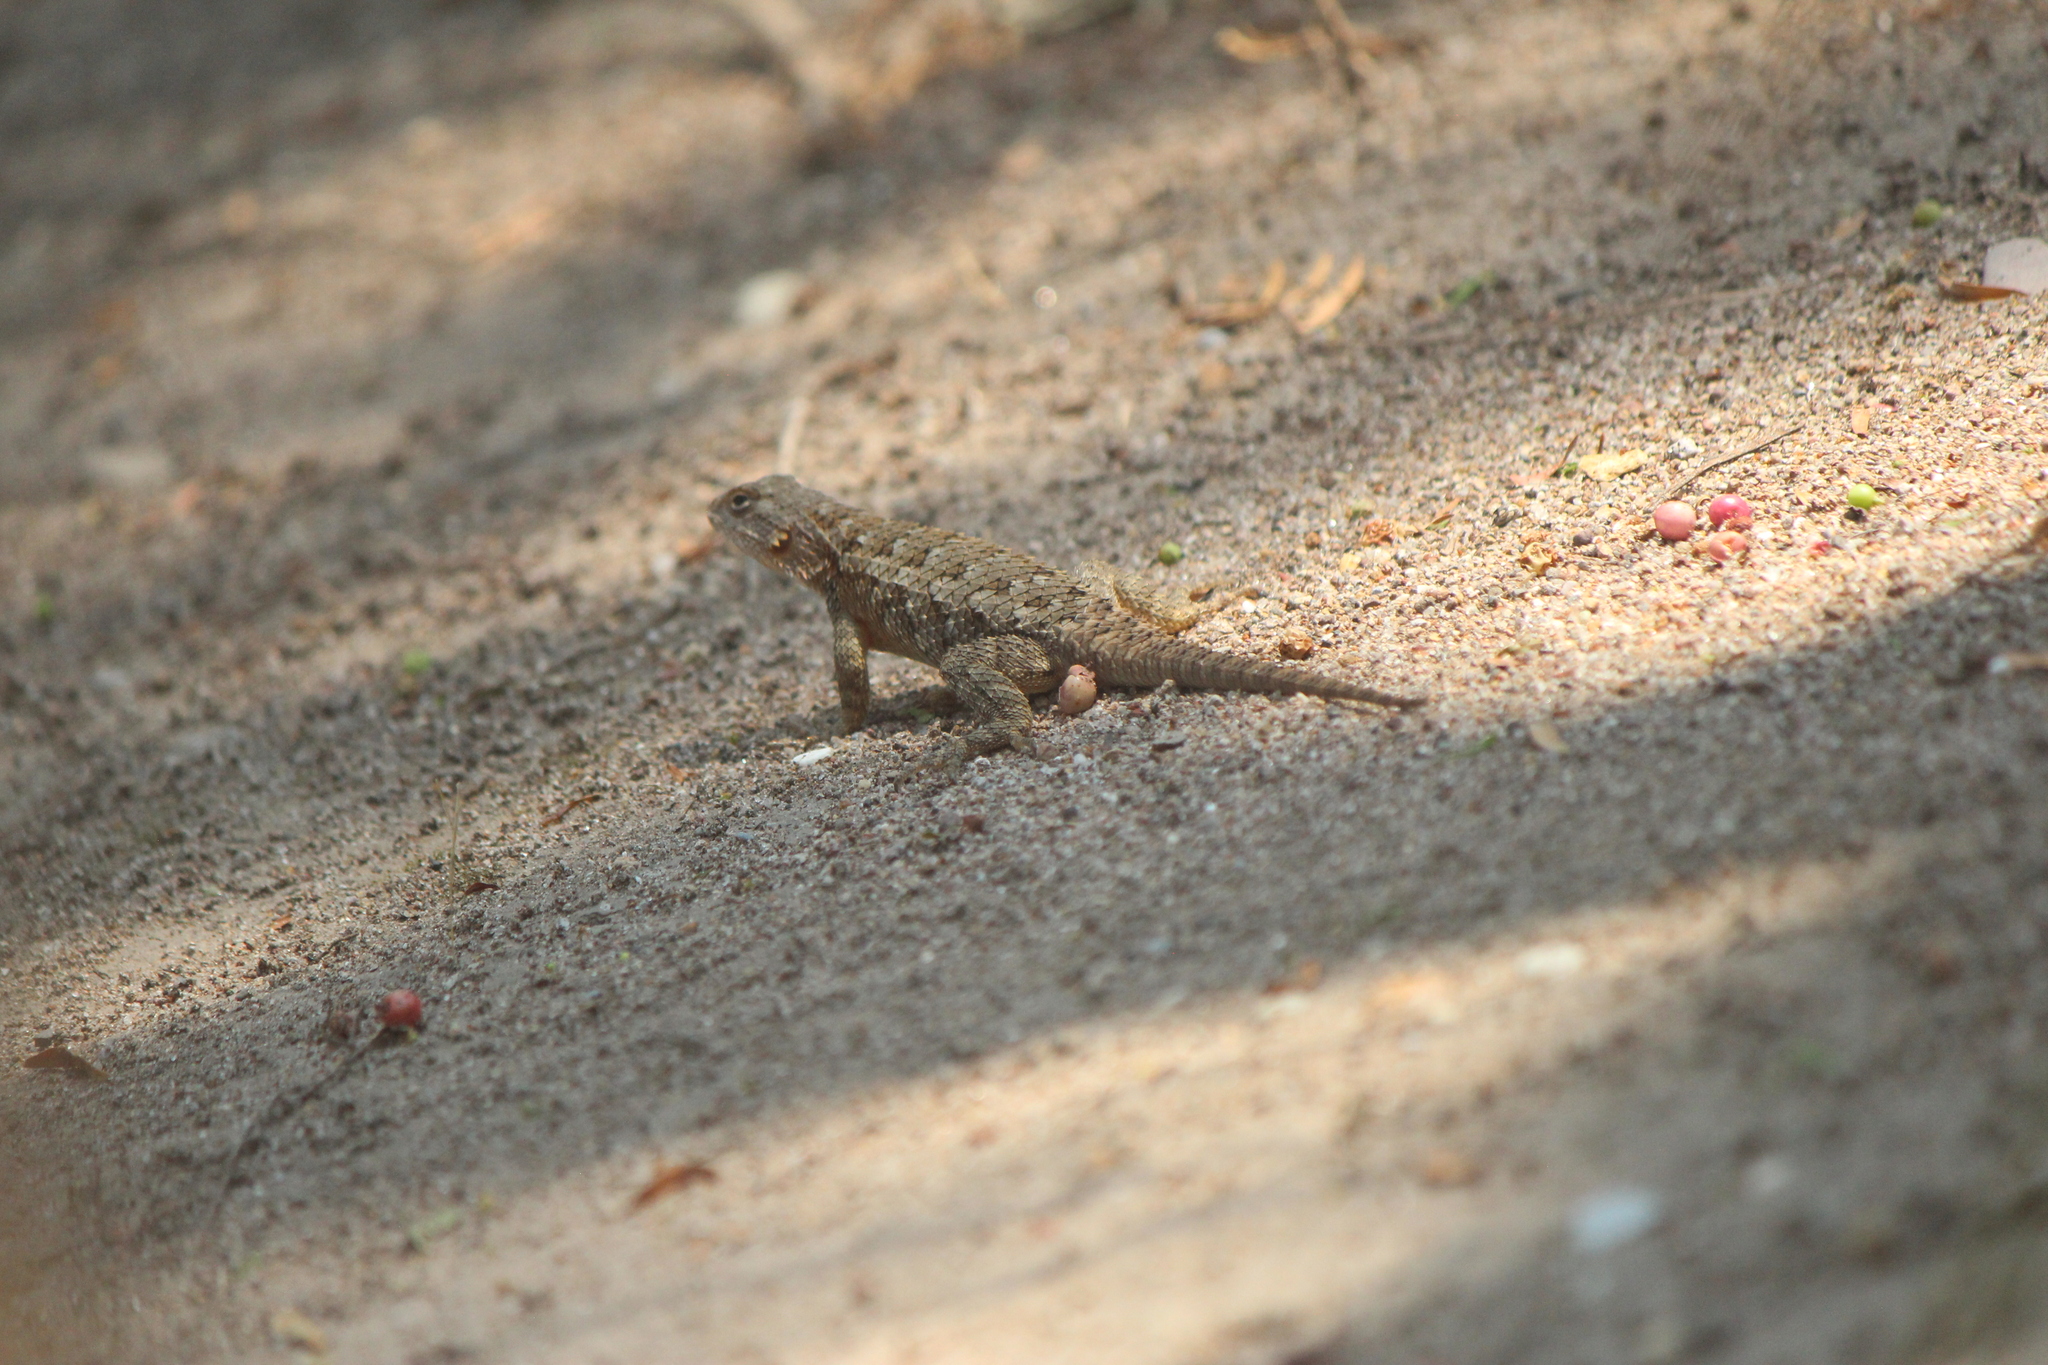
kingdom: Animalia
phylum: Chordata
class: Squamata
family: Phrynosomatidae
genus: Sceloporus
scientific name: Sceloporus spinosus
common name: Blue-spotted spiny lizard [caeruleopunctatus]
